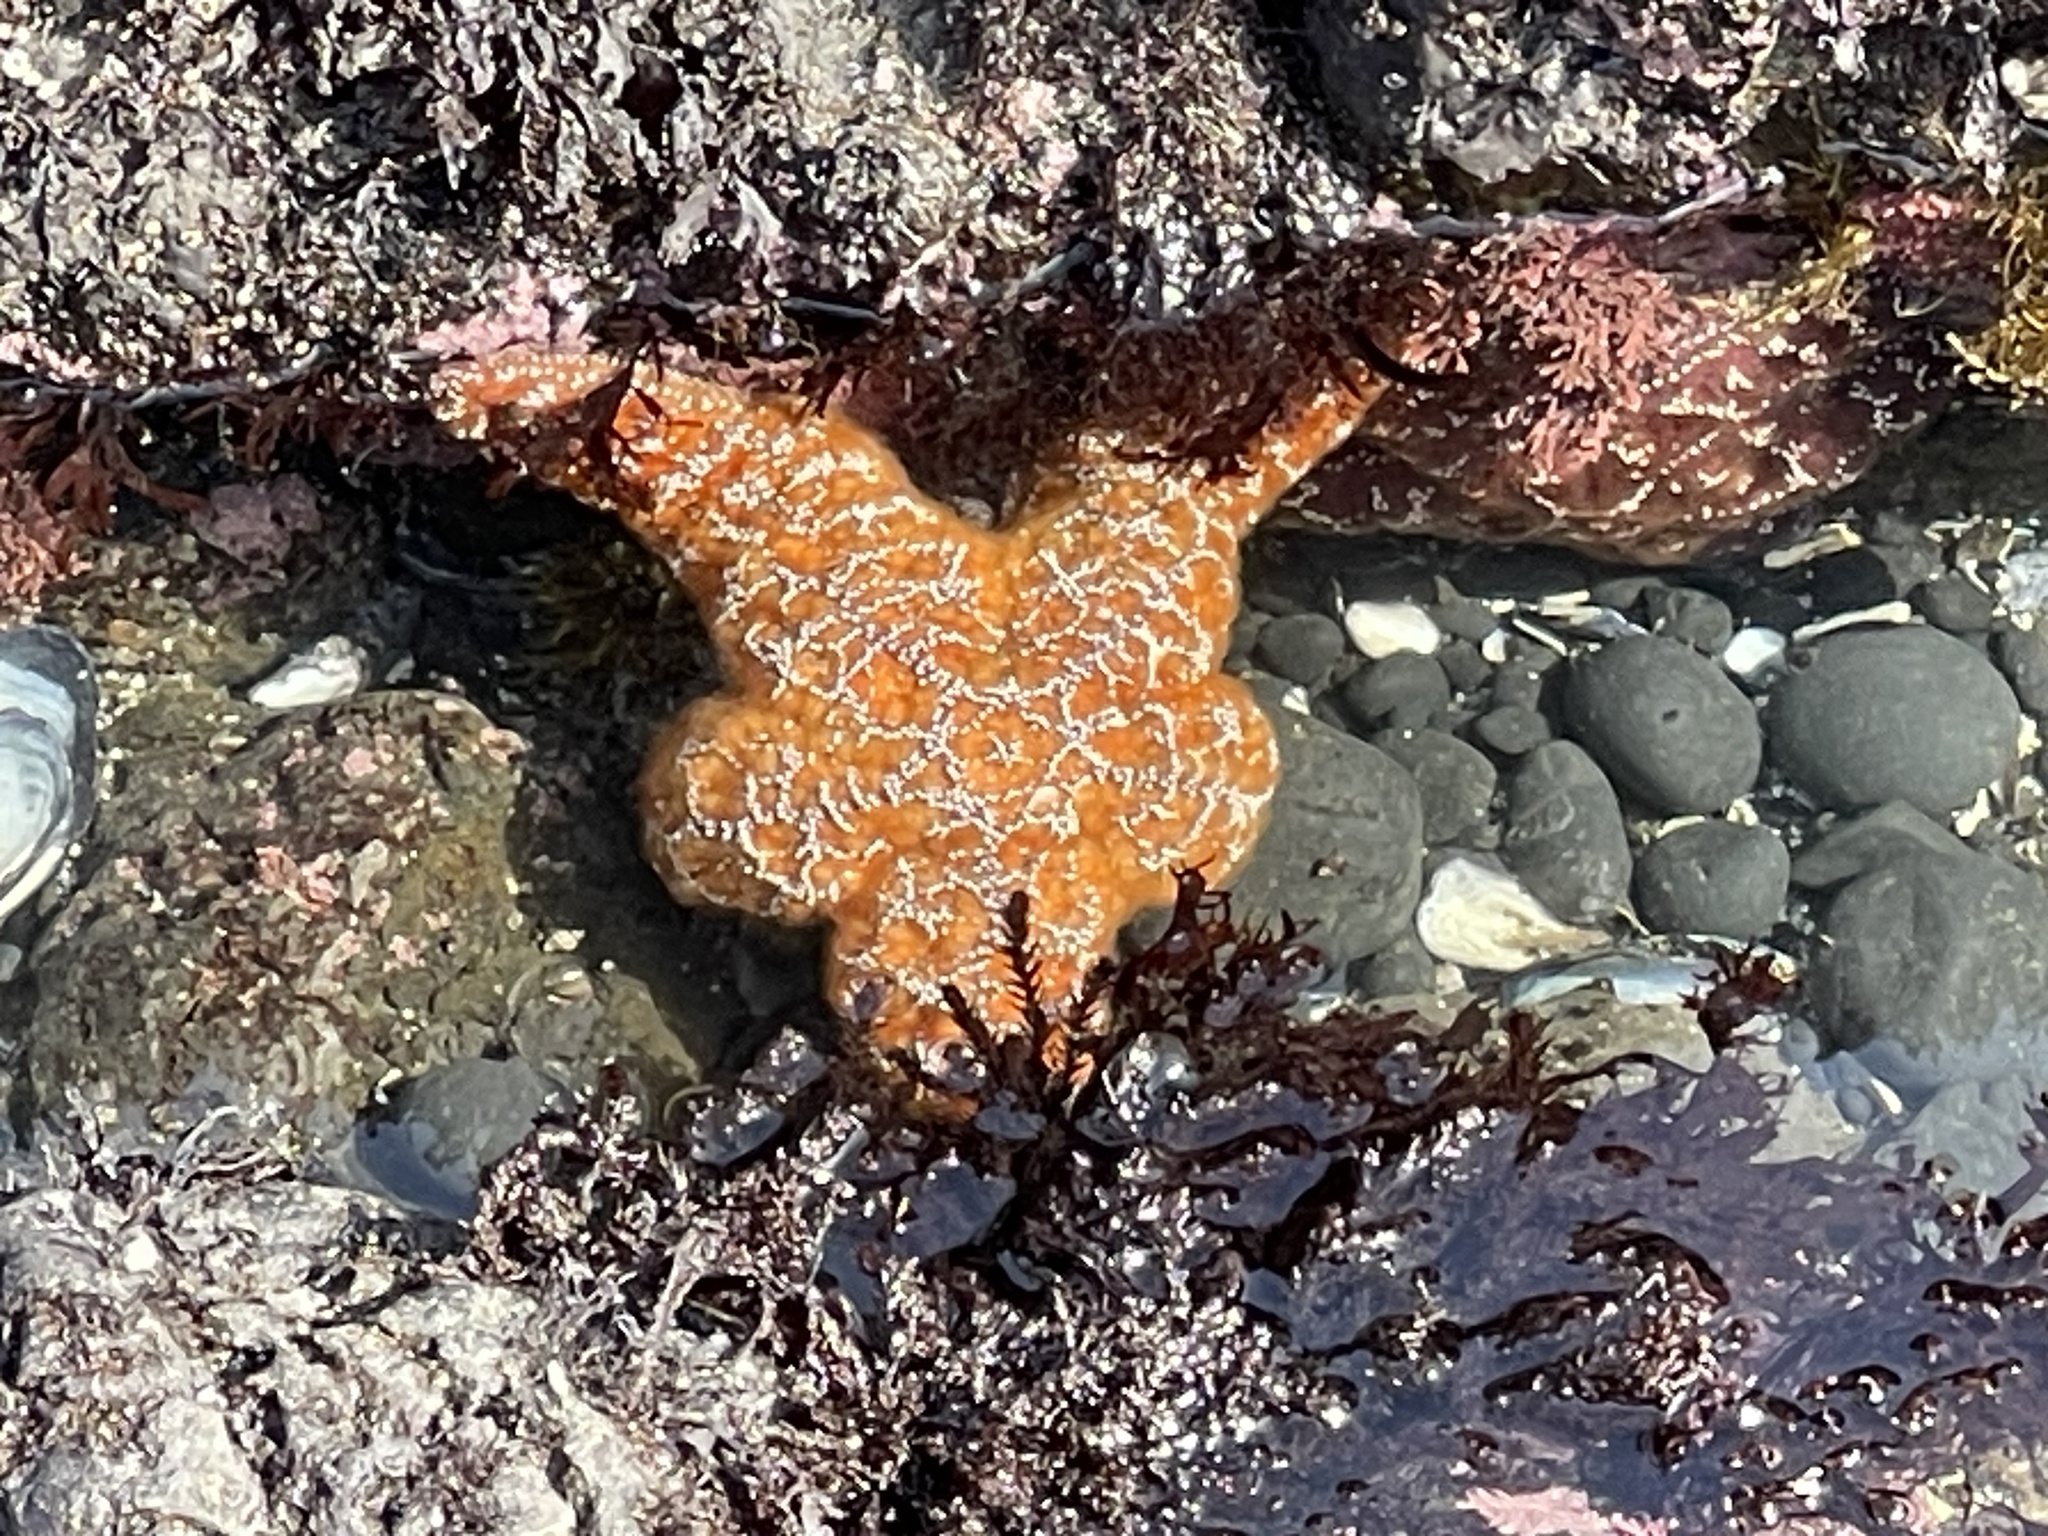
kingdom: Animalia
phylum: Echinodermata
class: Asteroidea
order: Forcipulatida
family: Asteriidae
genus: Pisaster
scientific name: Pisaster ochraceus
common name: Ochre stars
